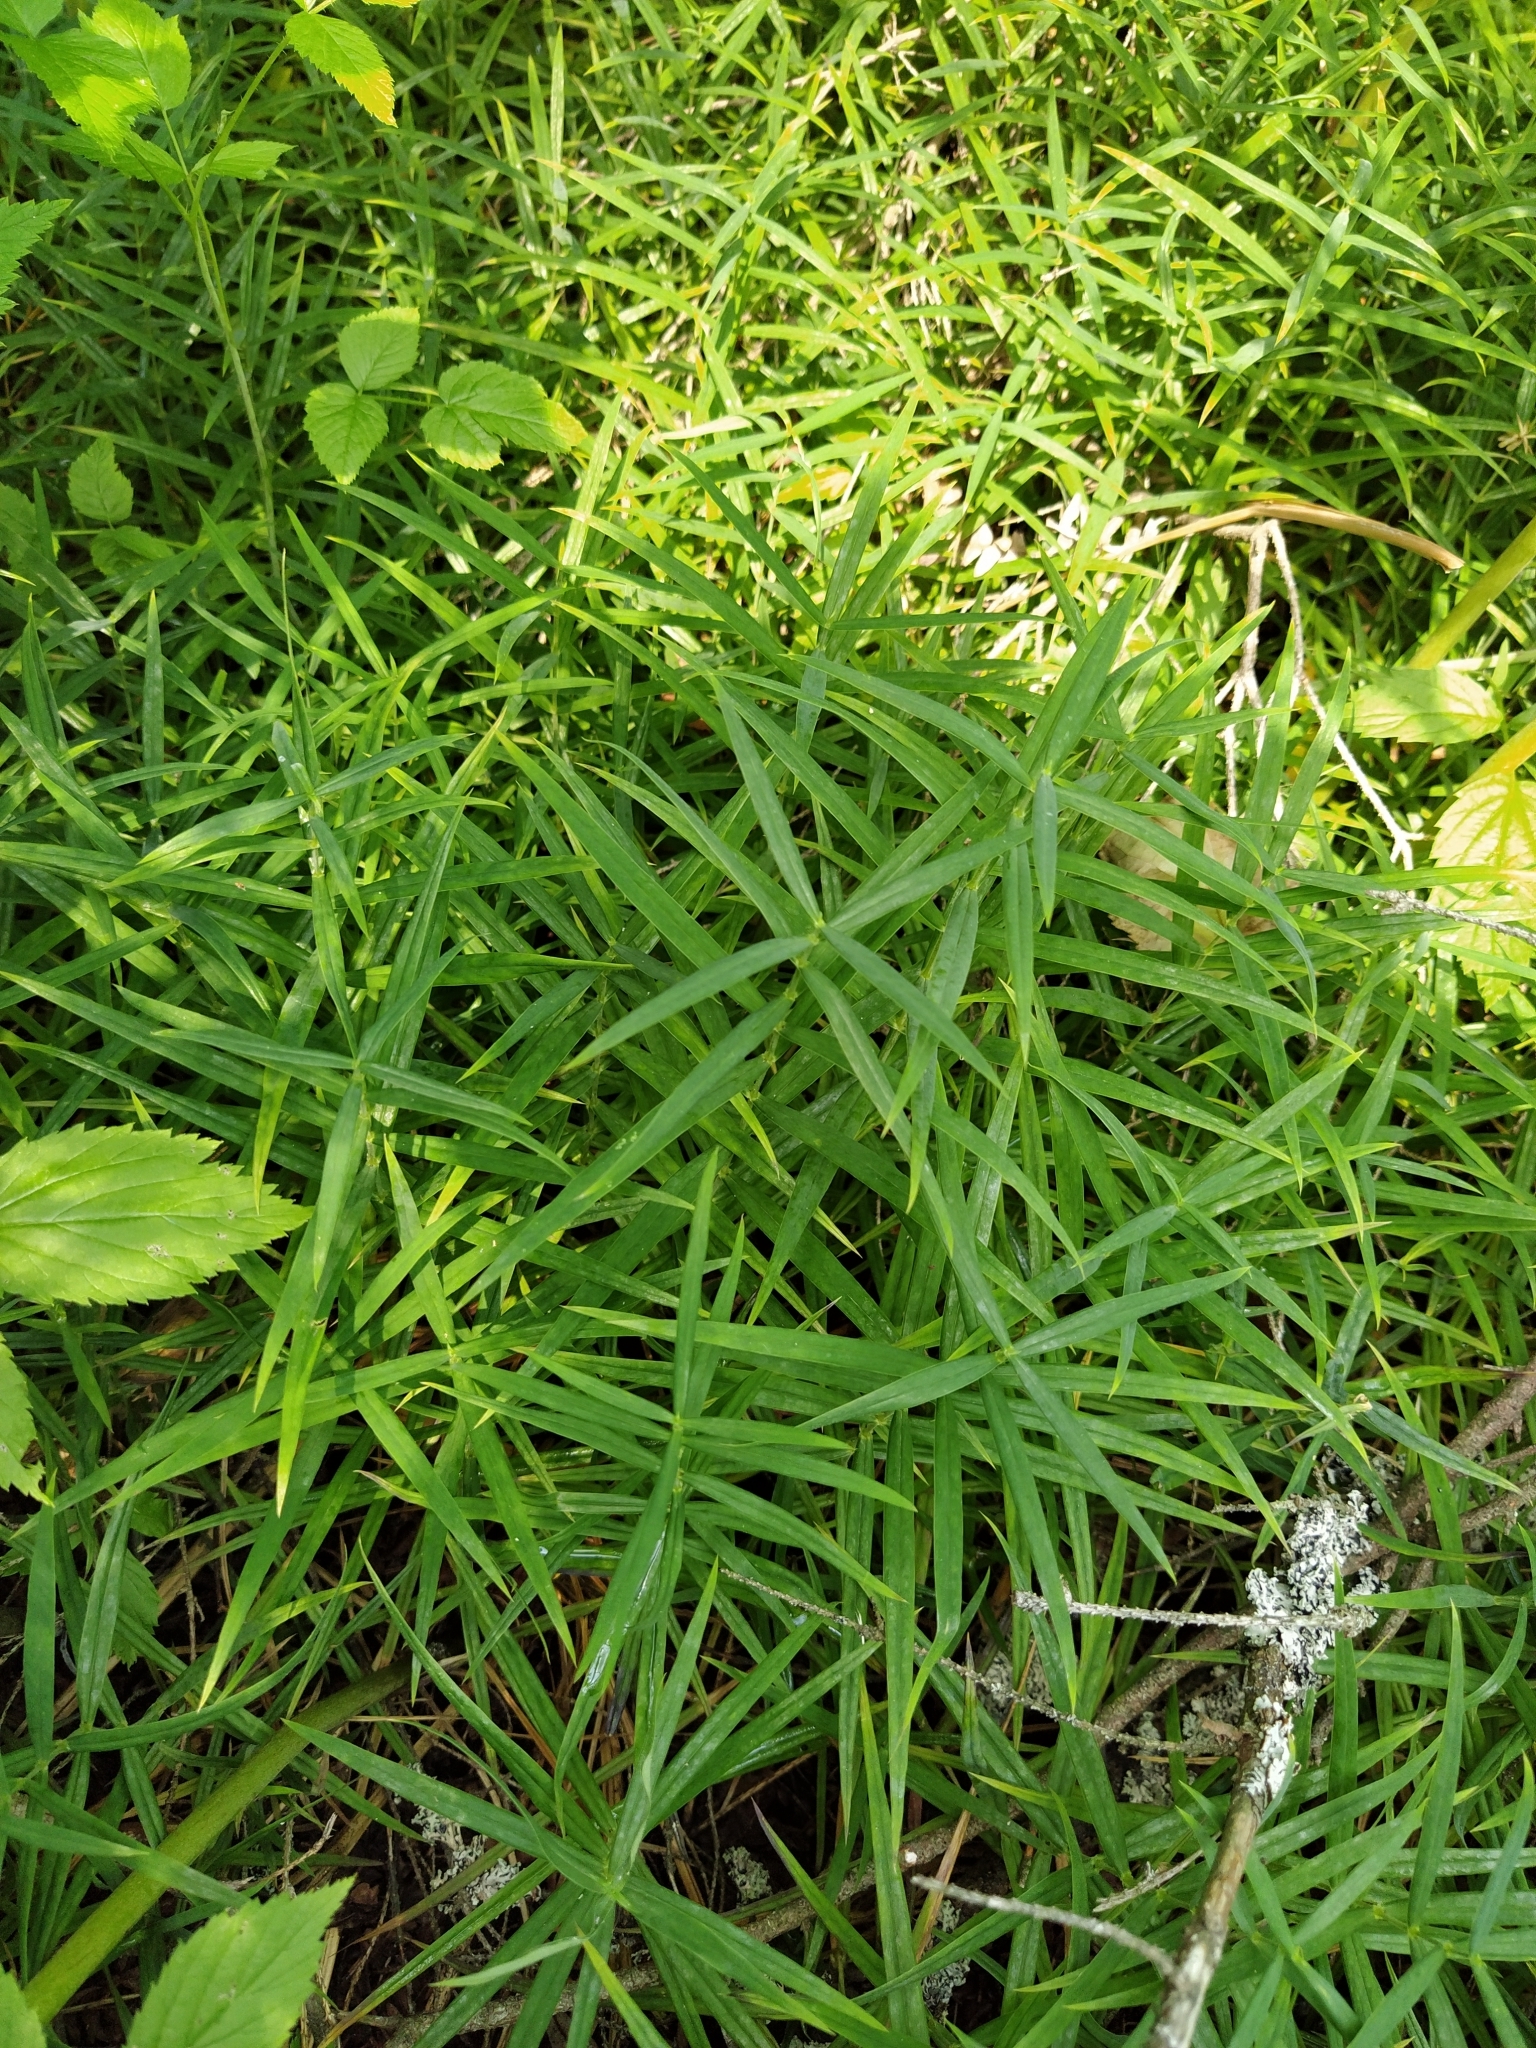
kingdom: Plantae
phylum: Tracheophyta
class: Magnoliopsida
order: Caryophyllales
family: Caryophyllaceae
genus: Rabelera
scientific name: Rabelera holostea
